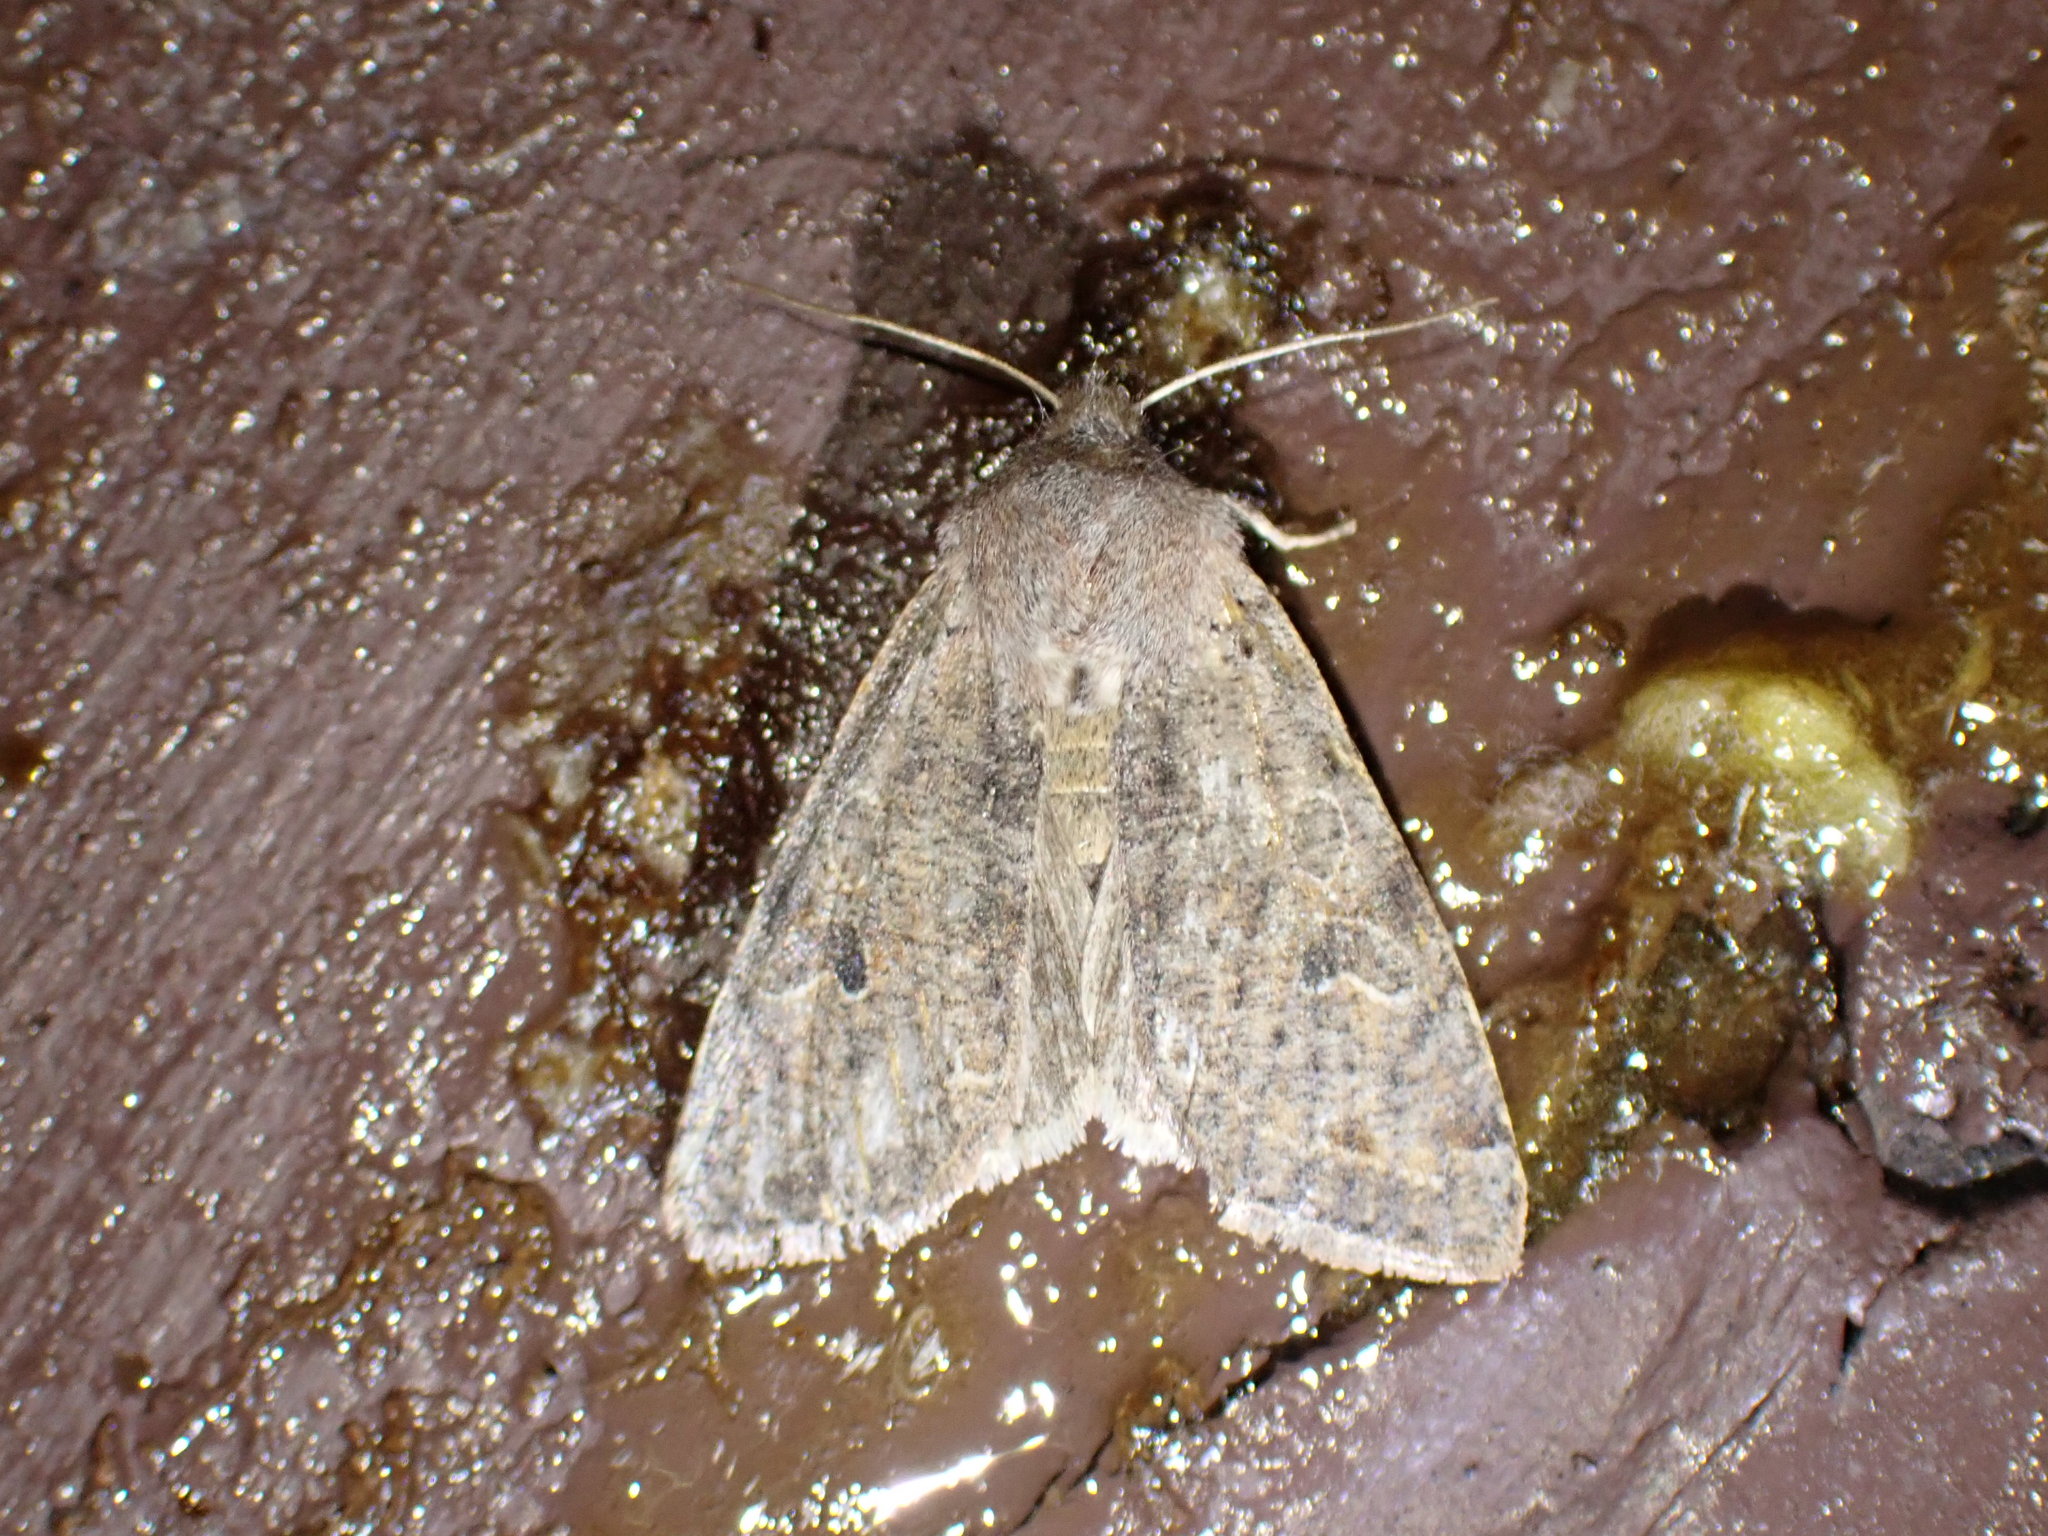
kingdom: Animalia
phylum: Arthropoda
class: Insecta
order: Lepidoptera
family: Noctuidae
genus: Orthosia
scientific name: Orthosia hibisci
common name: Green fruitworm
